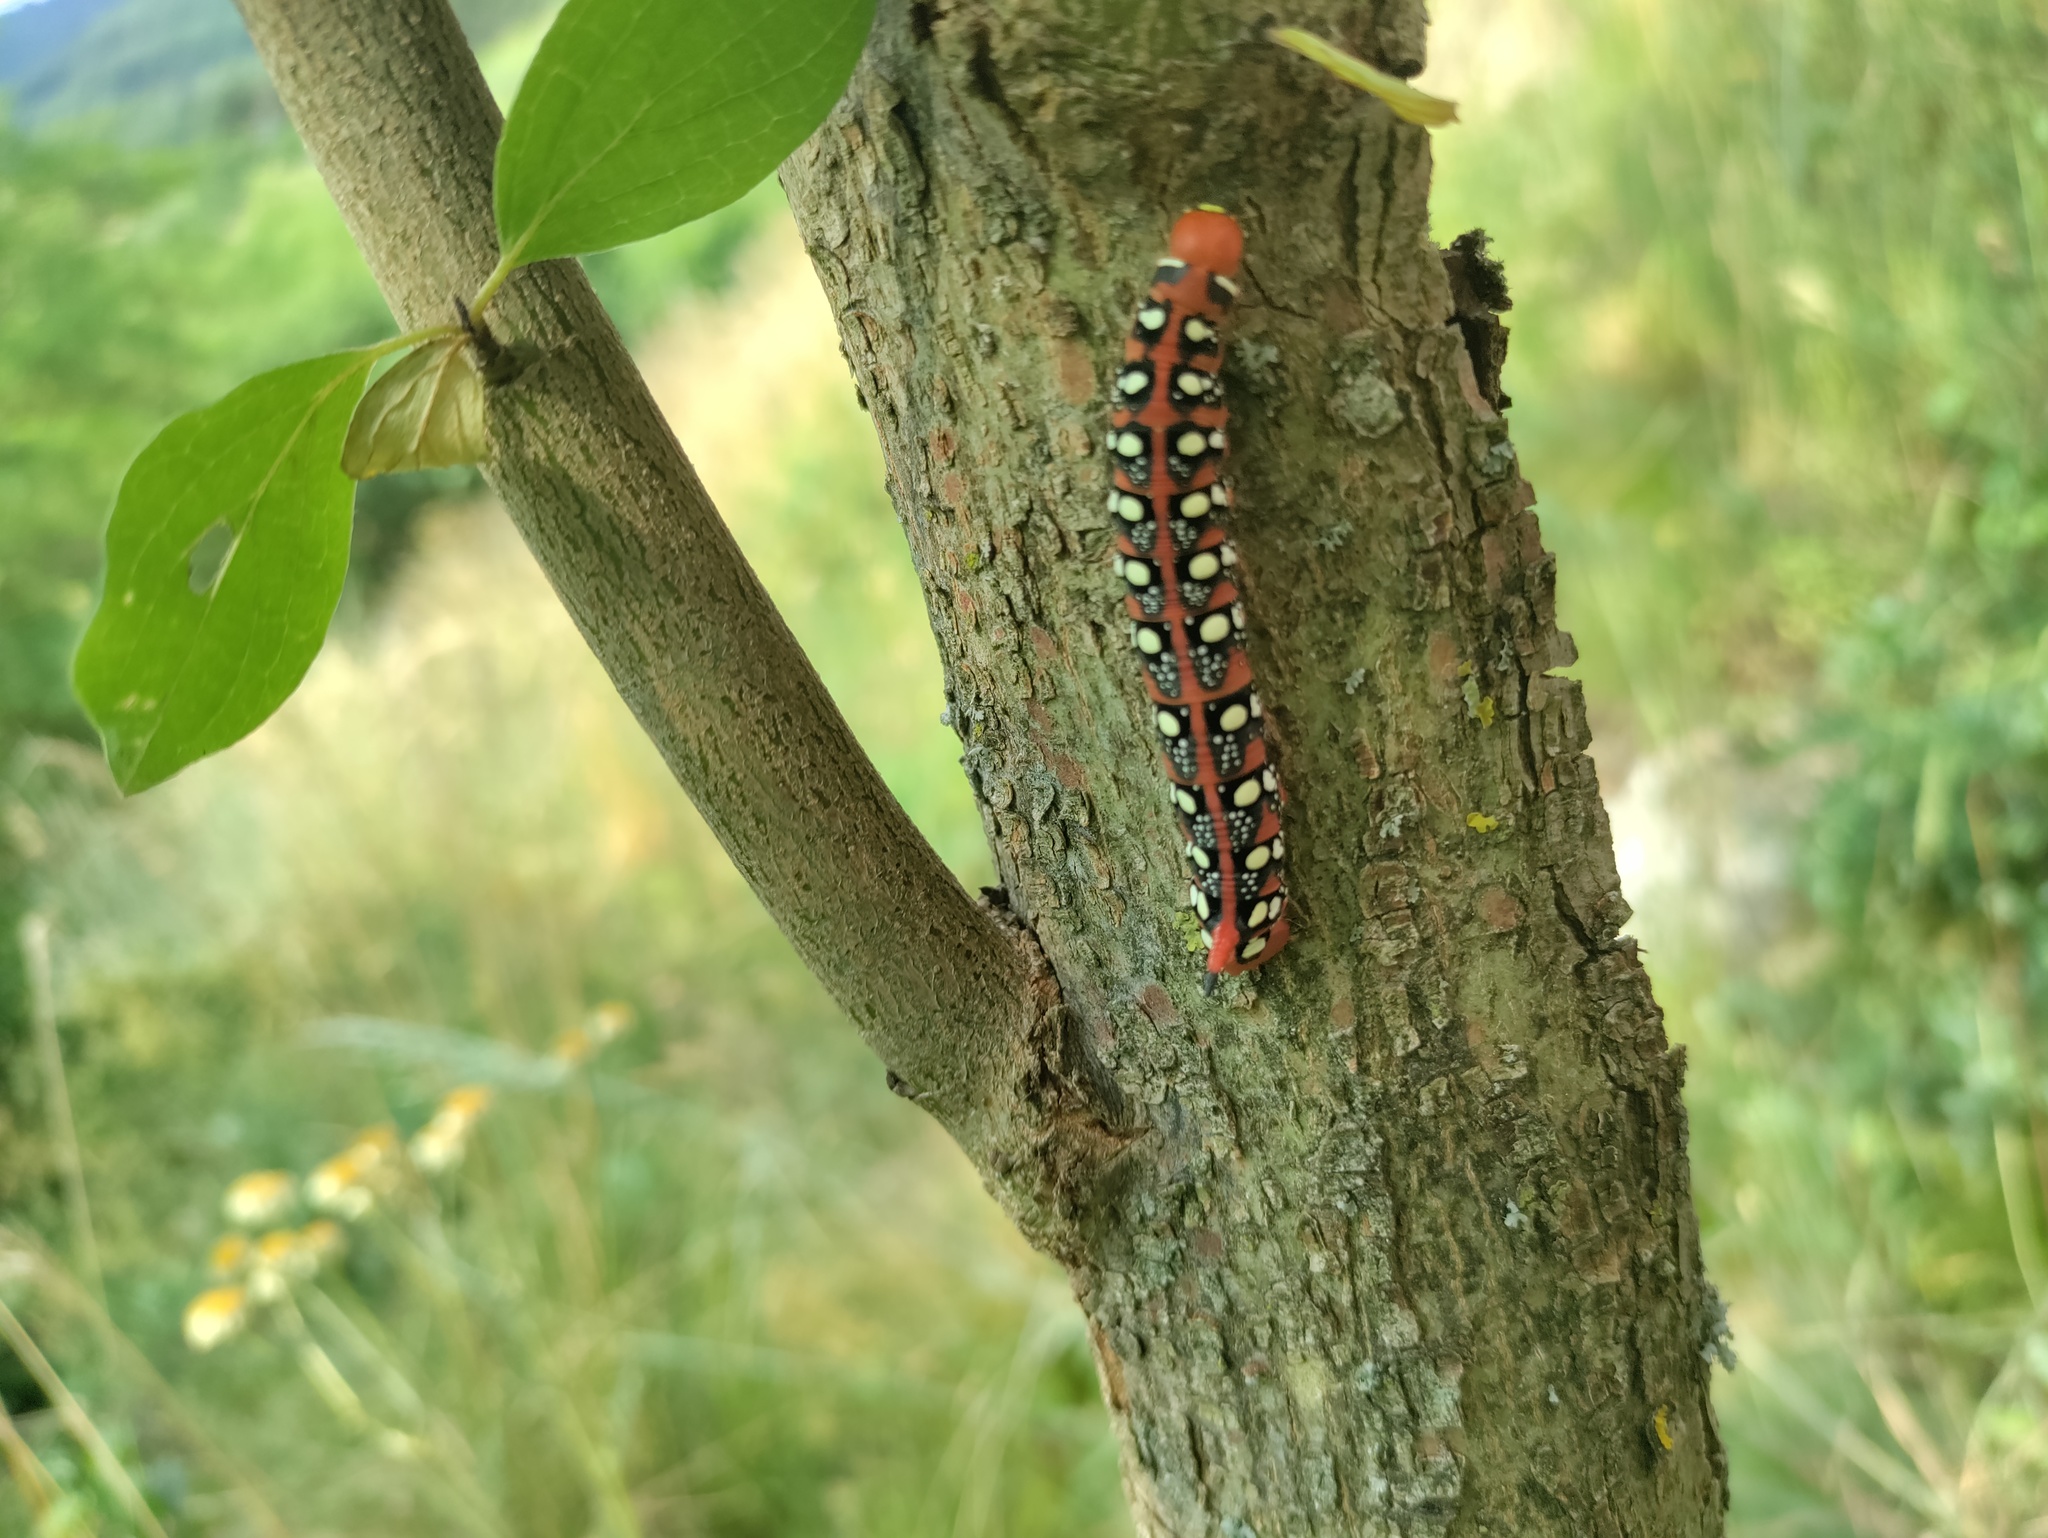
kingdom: Animalia
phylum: Arthropoda
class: Insecta
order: Lepidoptera
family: Sphingidae
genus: Hyles
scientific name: Hyles euphorbiae
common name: Spurge hawk-moth
